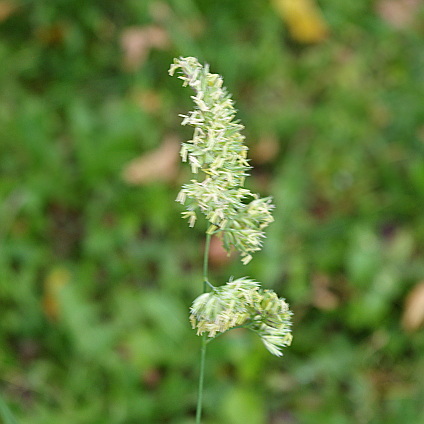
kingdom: Plantae
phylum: Tracheophyta
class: Liliopsida
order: Poales
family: Poaceae
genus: Dactylis
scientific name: Dactylis glomerata
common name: Orchardgrass
